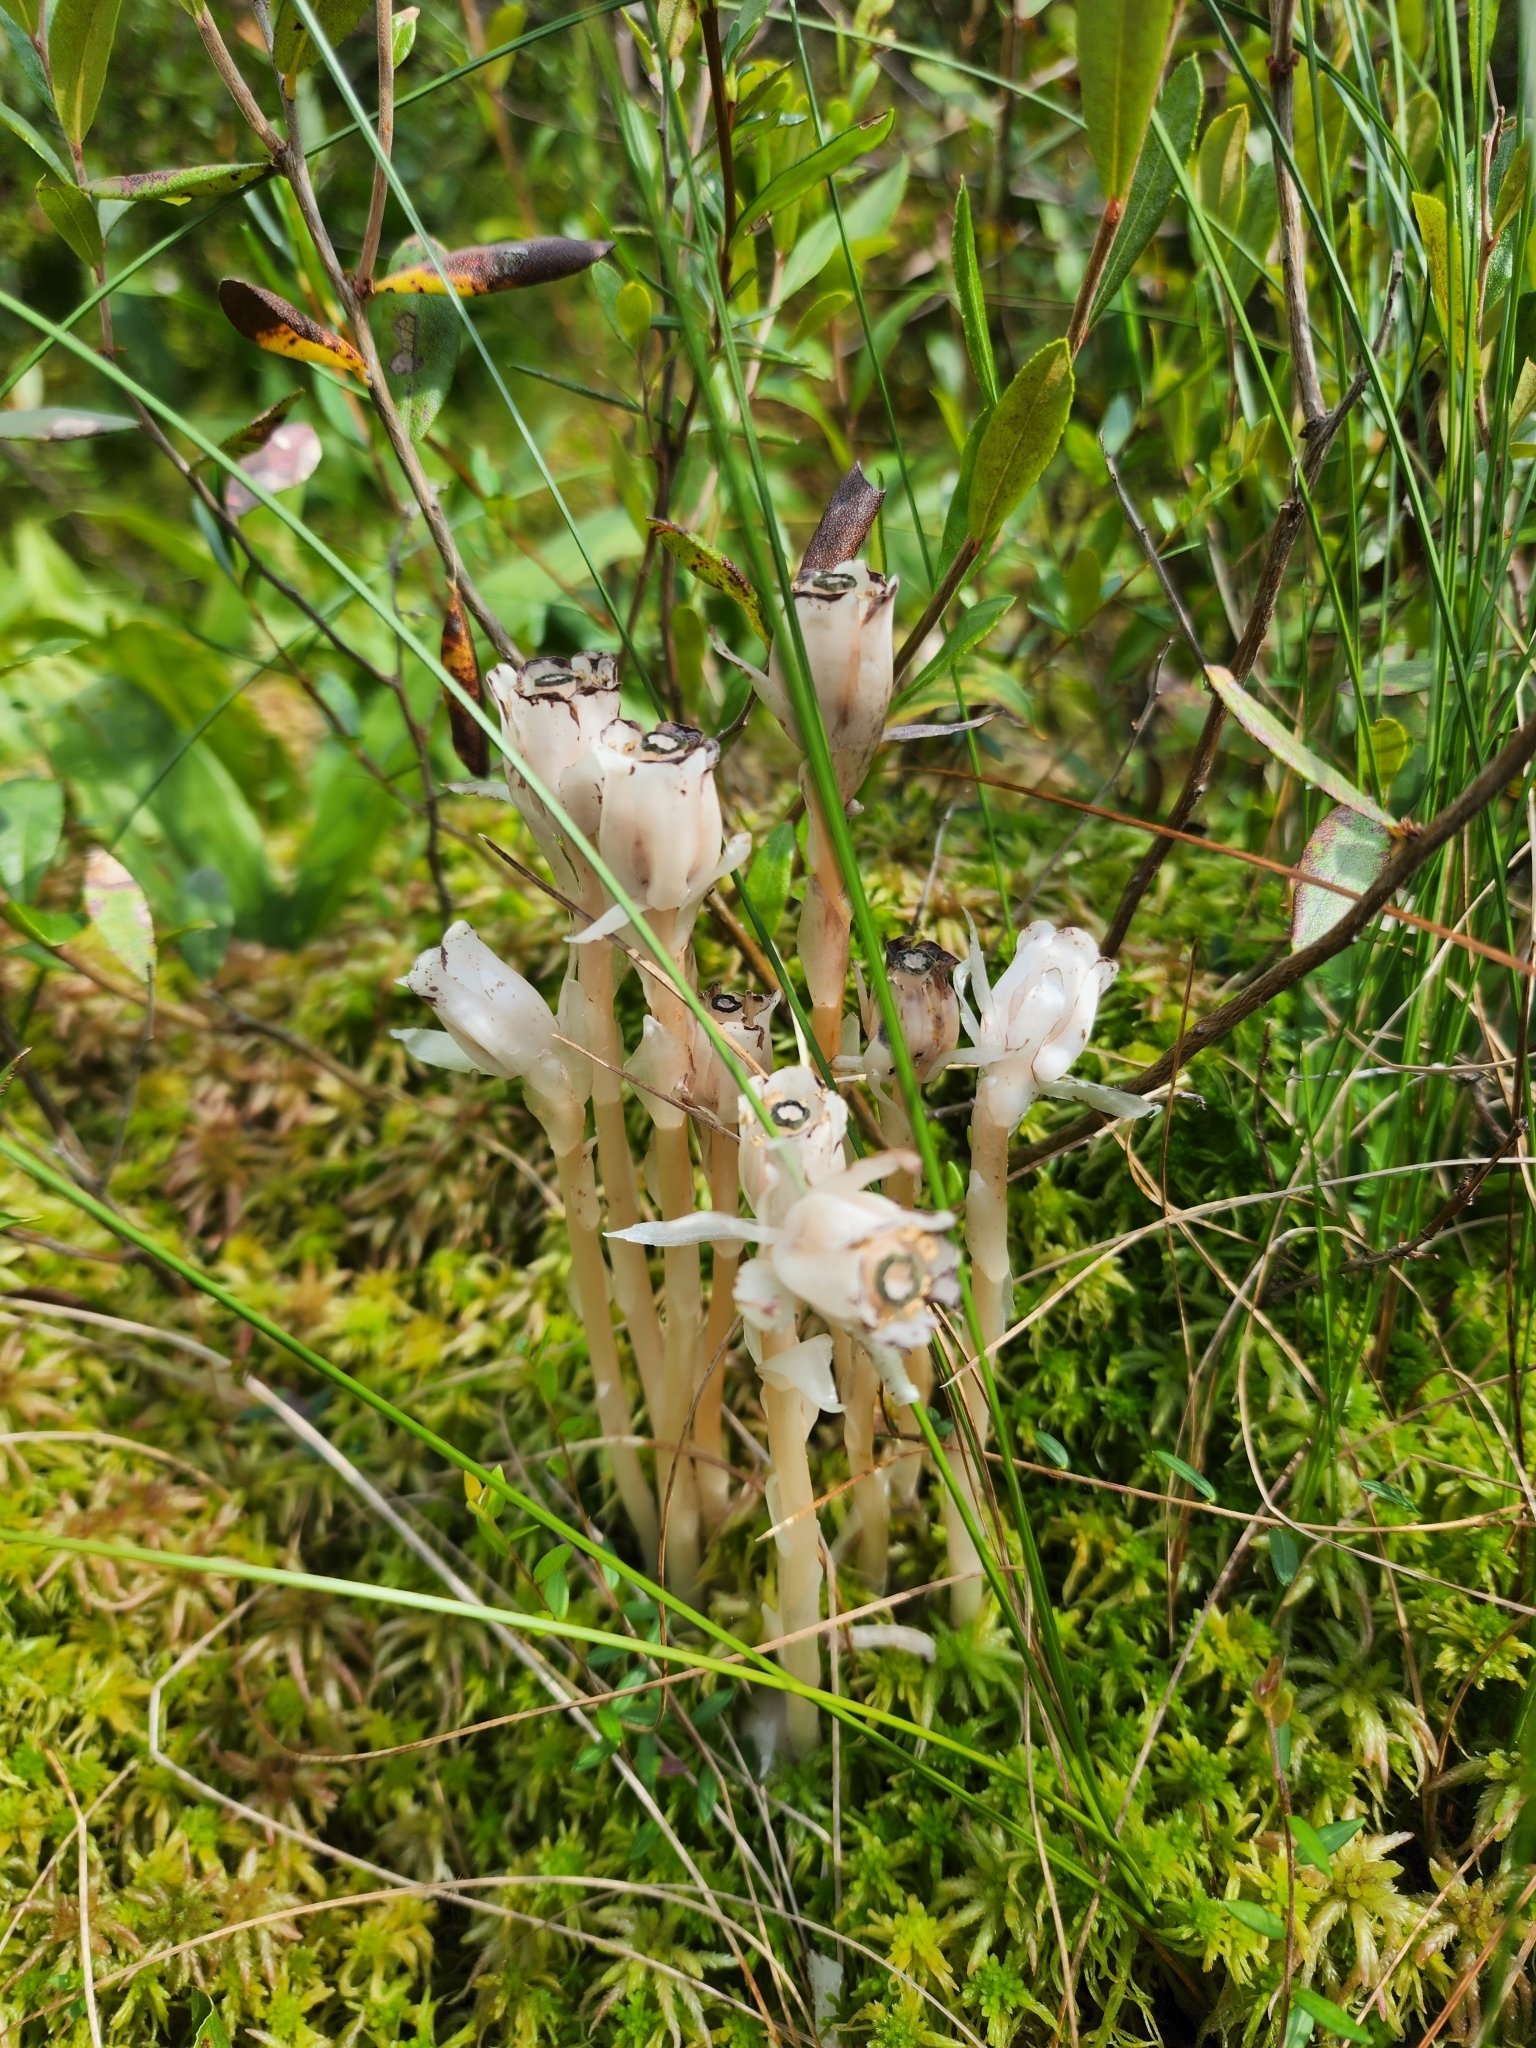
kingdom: Plantae
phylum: Tracheophyta
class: Magnoliopsida
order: Ericales
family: Ericaceae
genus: Monotropa
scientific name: Monotropa uniflora
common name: Convulsion root
